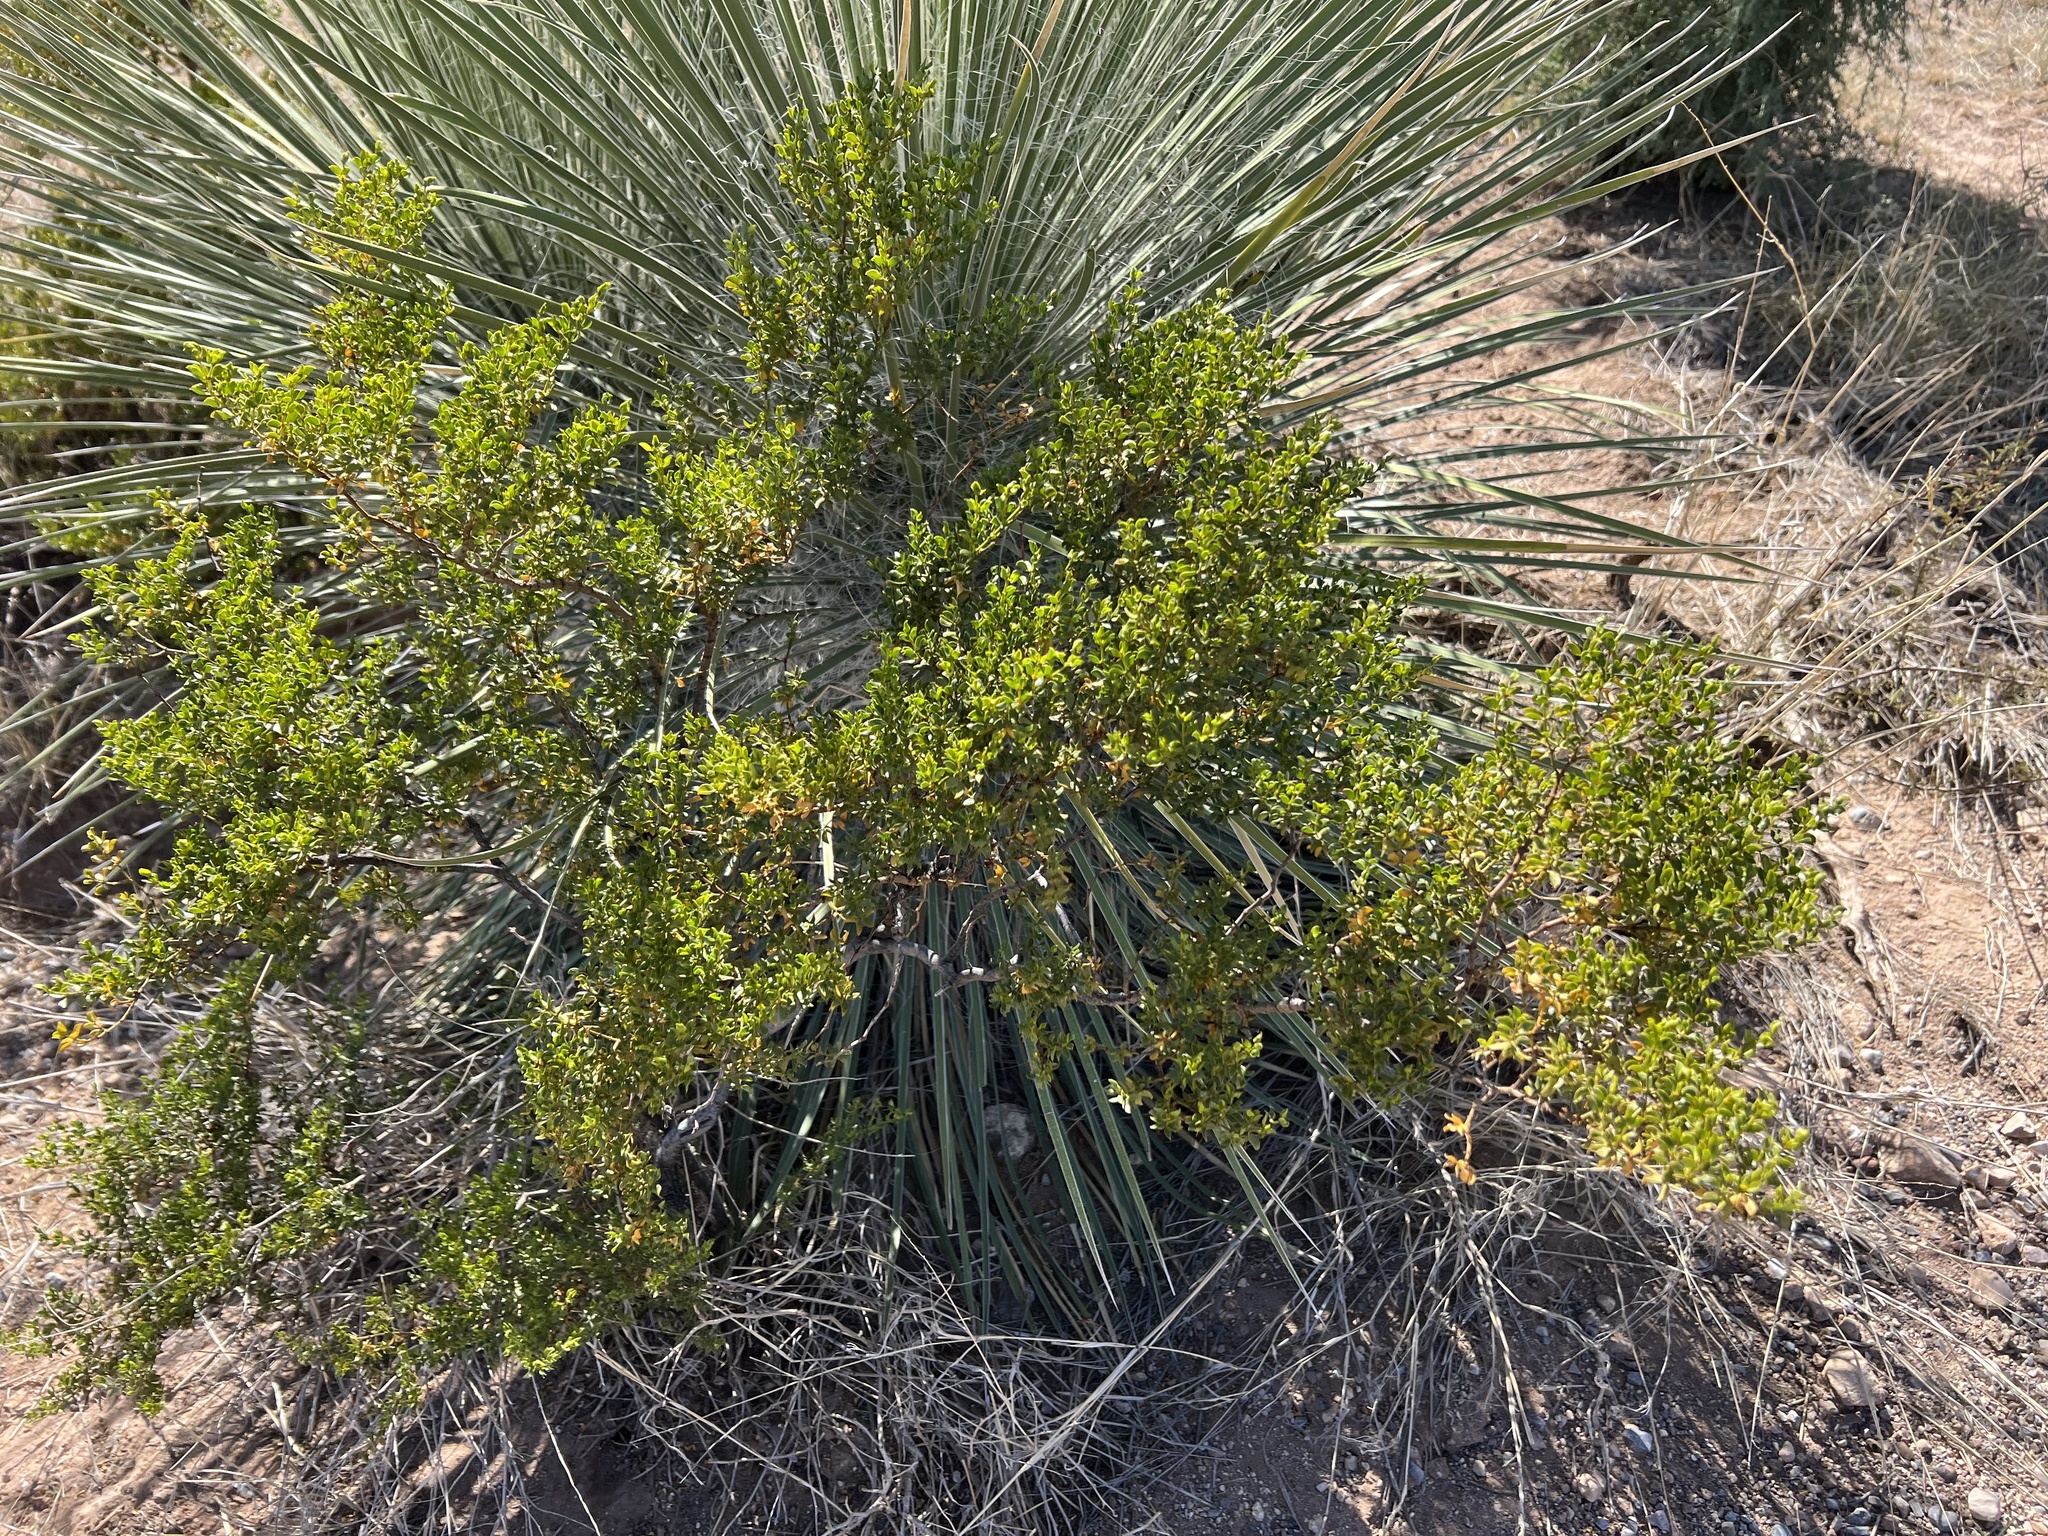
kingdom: Plantae
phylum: Tracheophyta
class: Magnoliopsida
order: Zygophyllales
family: Zygophyllaceae
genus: Larrea
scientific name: Larrea tridentata
